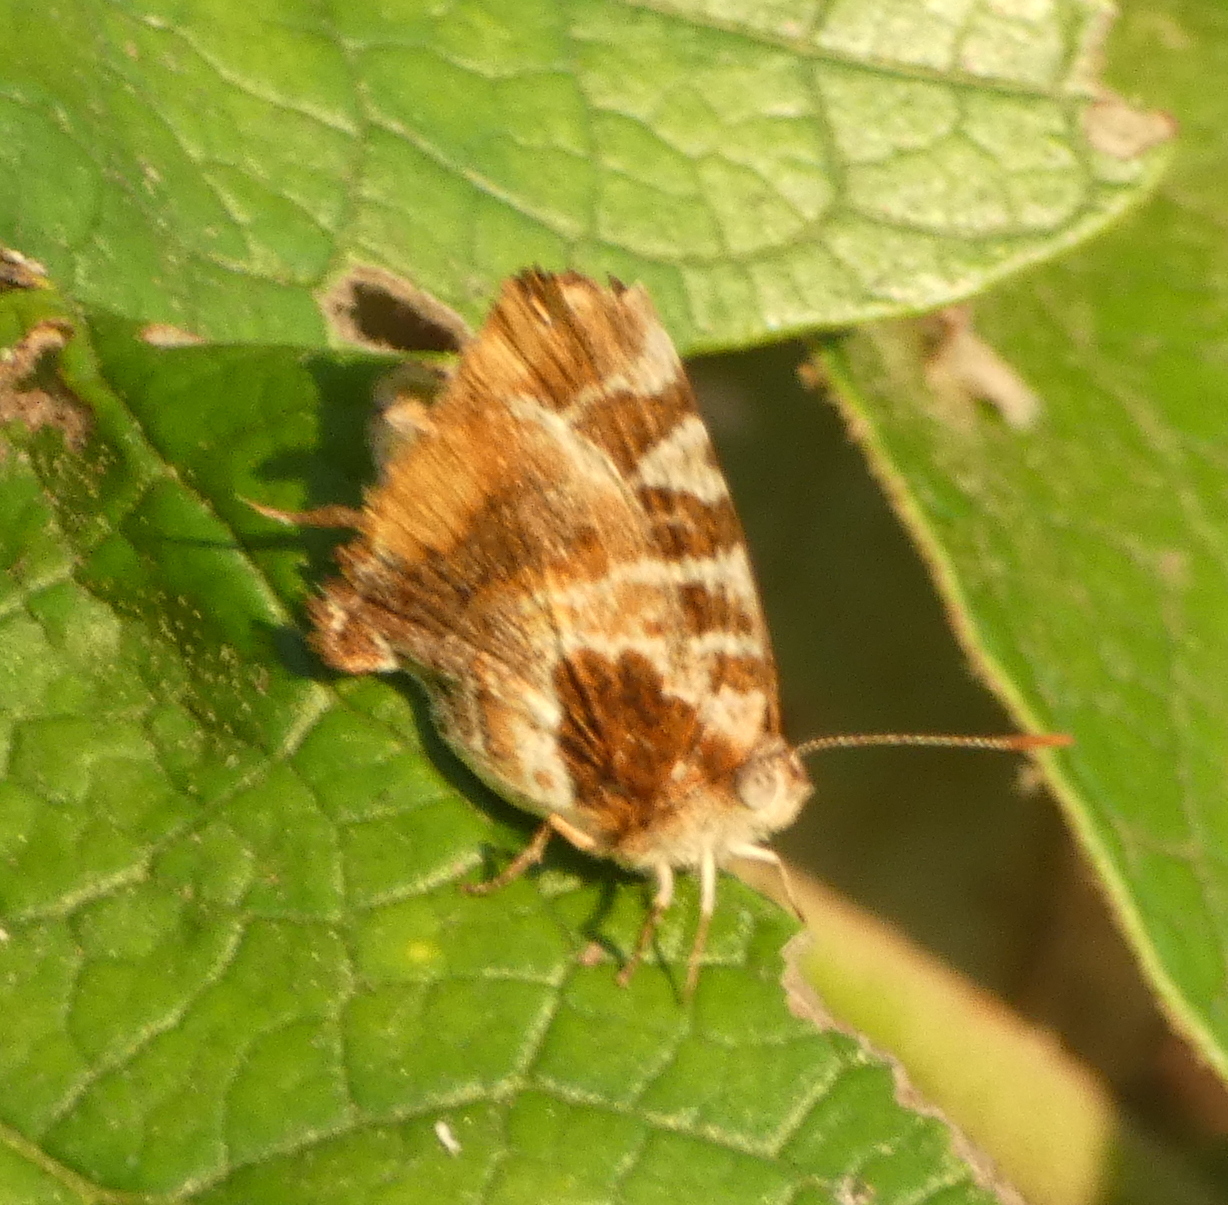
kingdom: Animalia
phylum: Arthropoda
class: Insecta
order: Lepidoptera
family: Lycaenidae
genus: Arawacus
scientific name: Arawacus ellida
